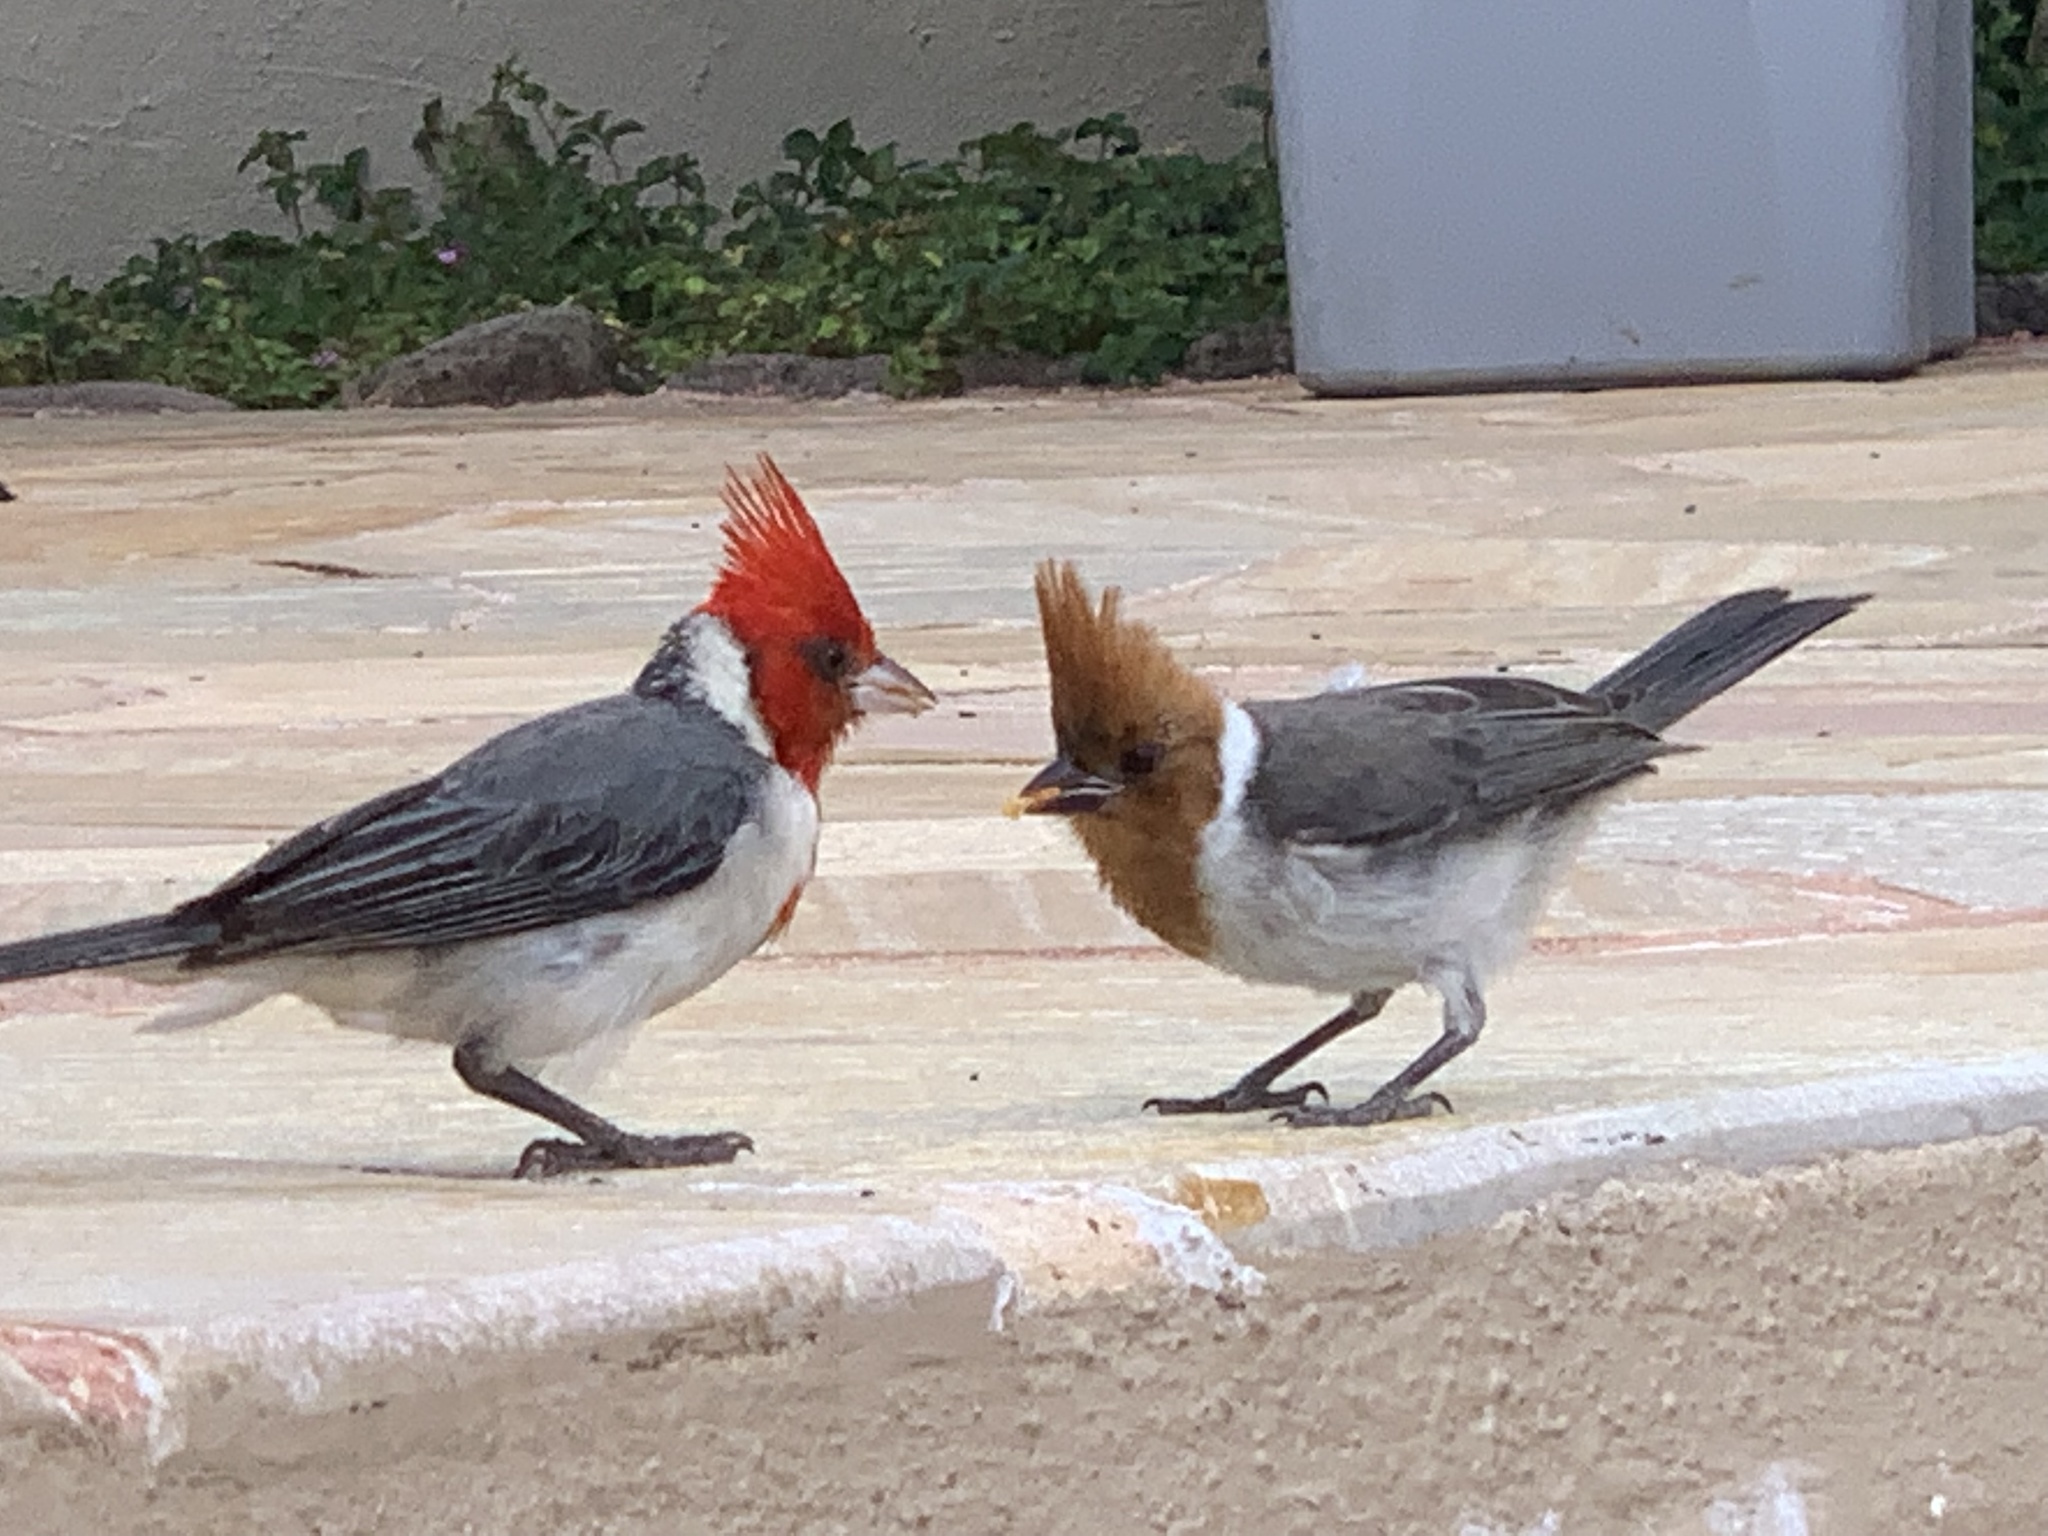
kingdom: Animalia
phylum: Chordata
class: Aves
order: Passeriformes
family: Thraupidae
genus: Paroaria
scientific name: Paroaria coronata
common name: Red-crested cardinal
